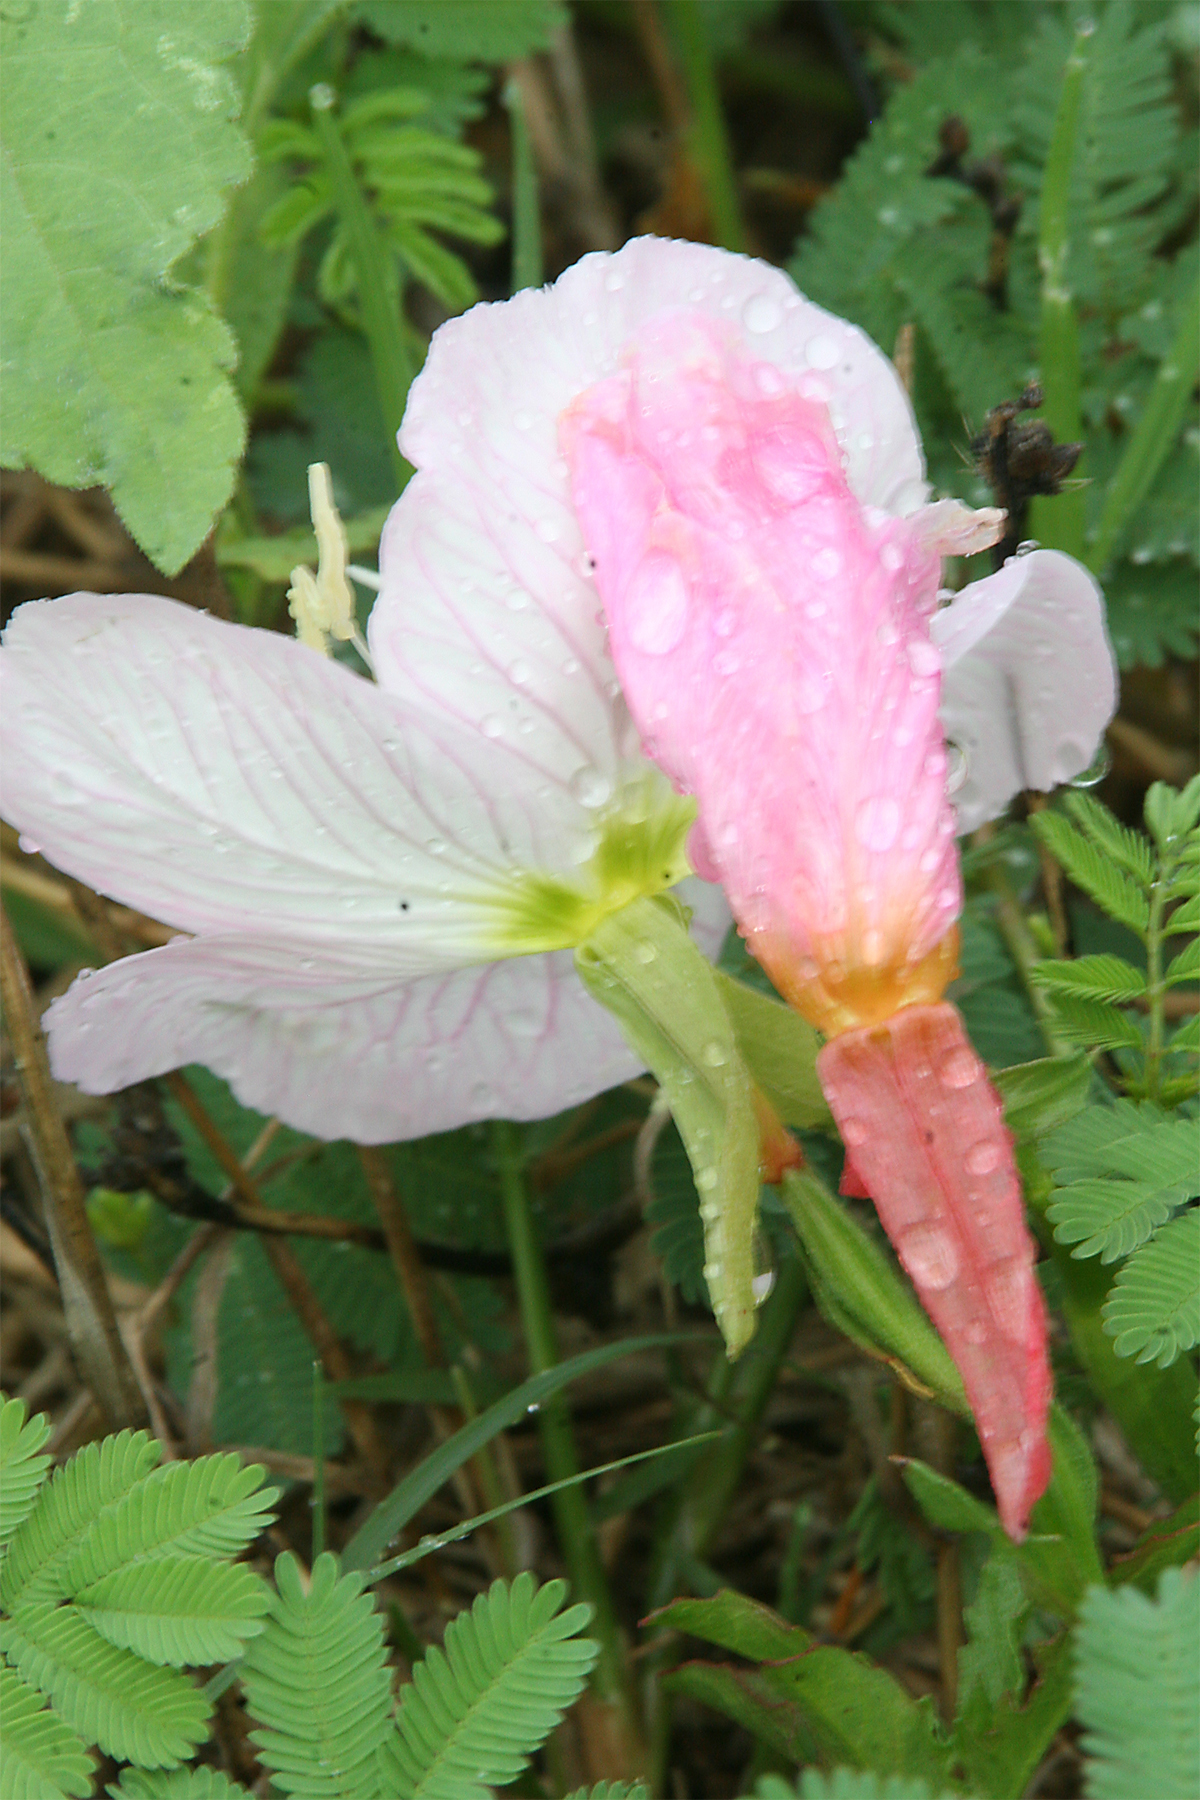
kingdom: Plantae
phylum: Tracheophyta
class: Magnoliopsida
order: Myrtales
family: Onagraceae
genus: Oenothera
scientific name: Oenothera speciosa
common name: White evening-primrose
